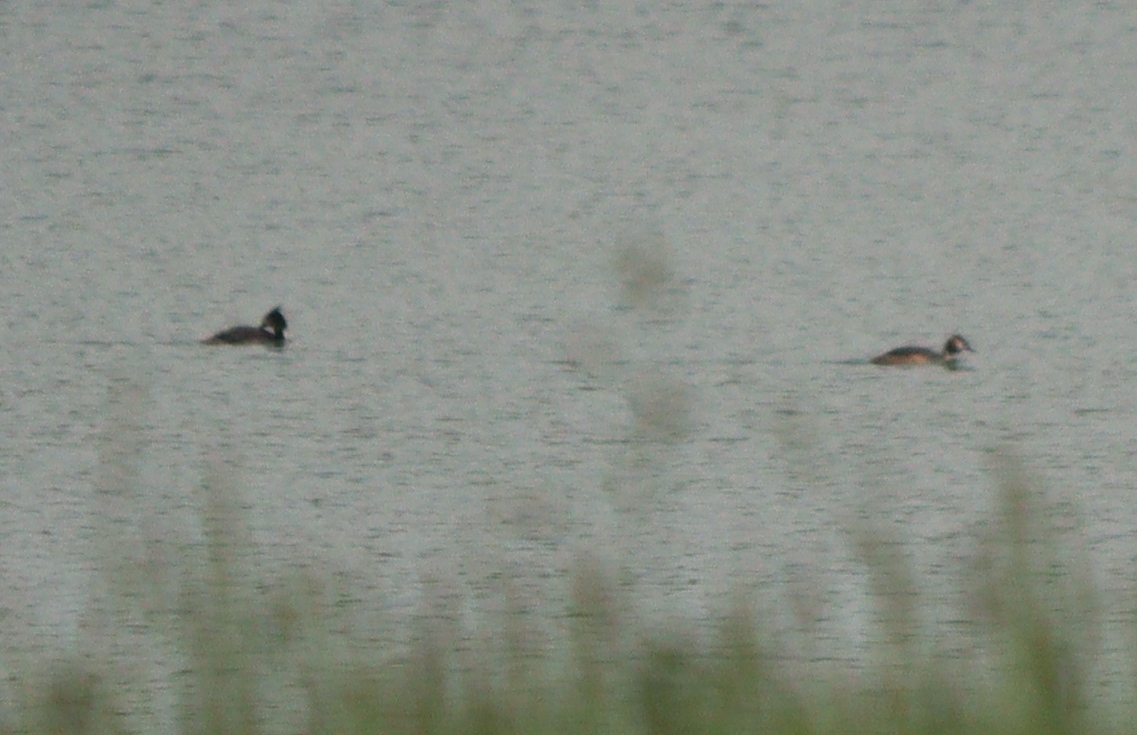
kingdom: Animalia
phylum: Chordata
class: Aves
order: Podicipediformes
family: Podicipedidae
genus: Podiceps
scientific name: Podiceps cristatus
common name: Great crested grebe
